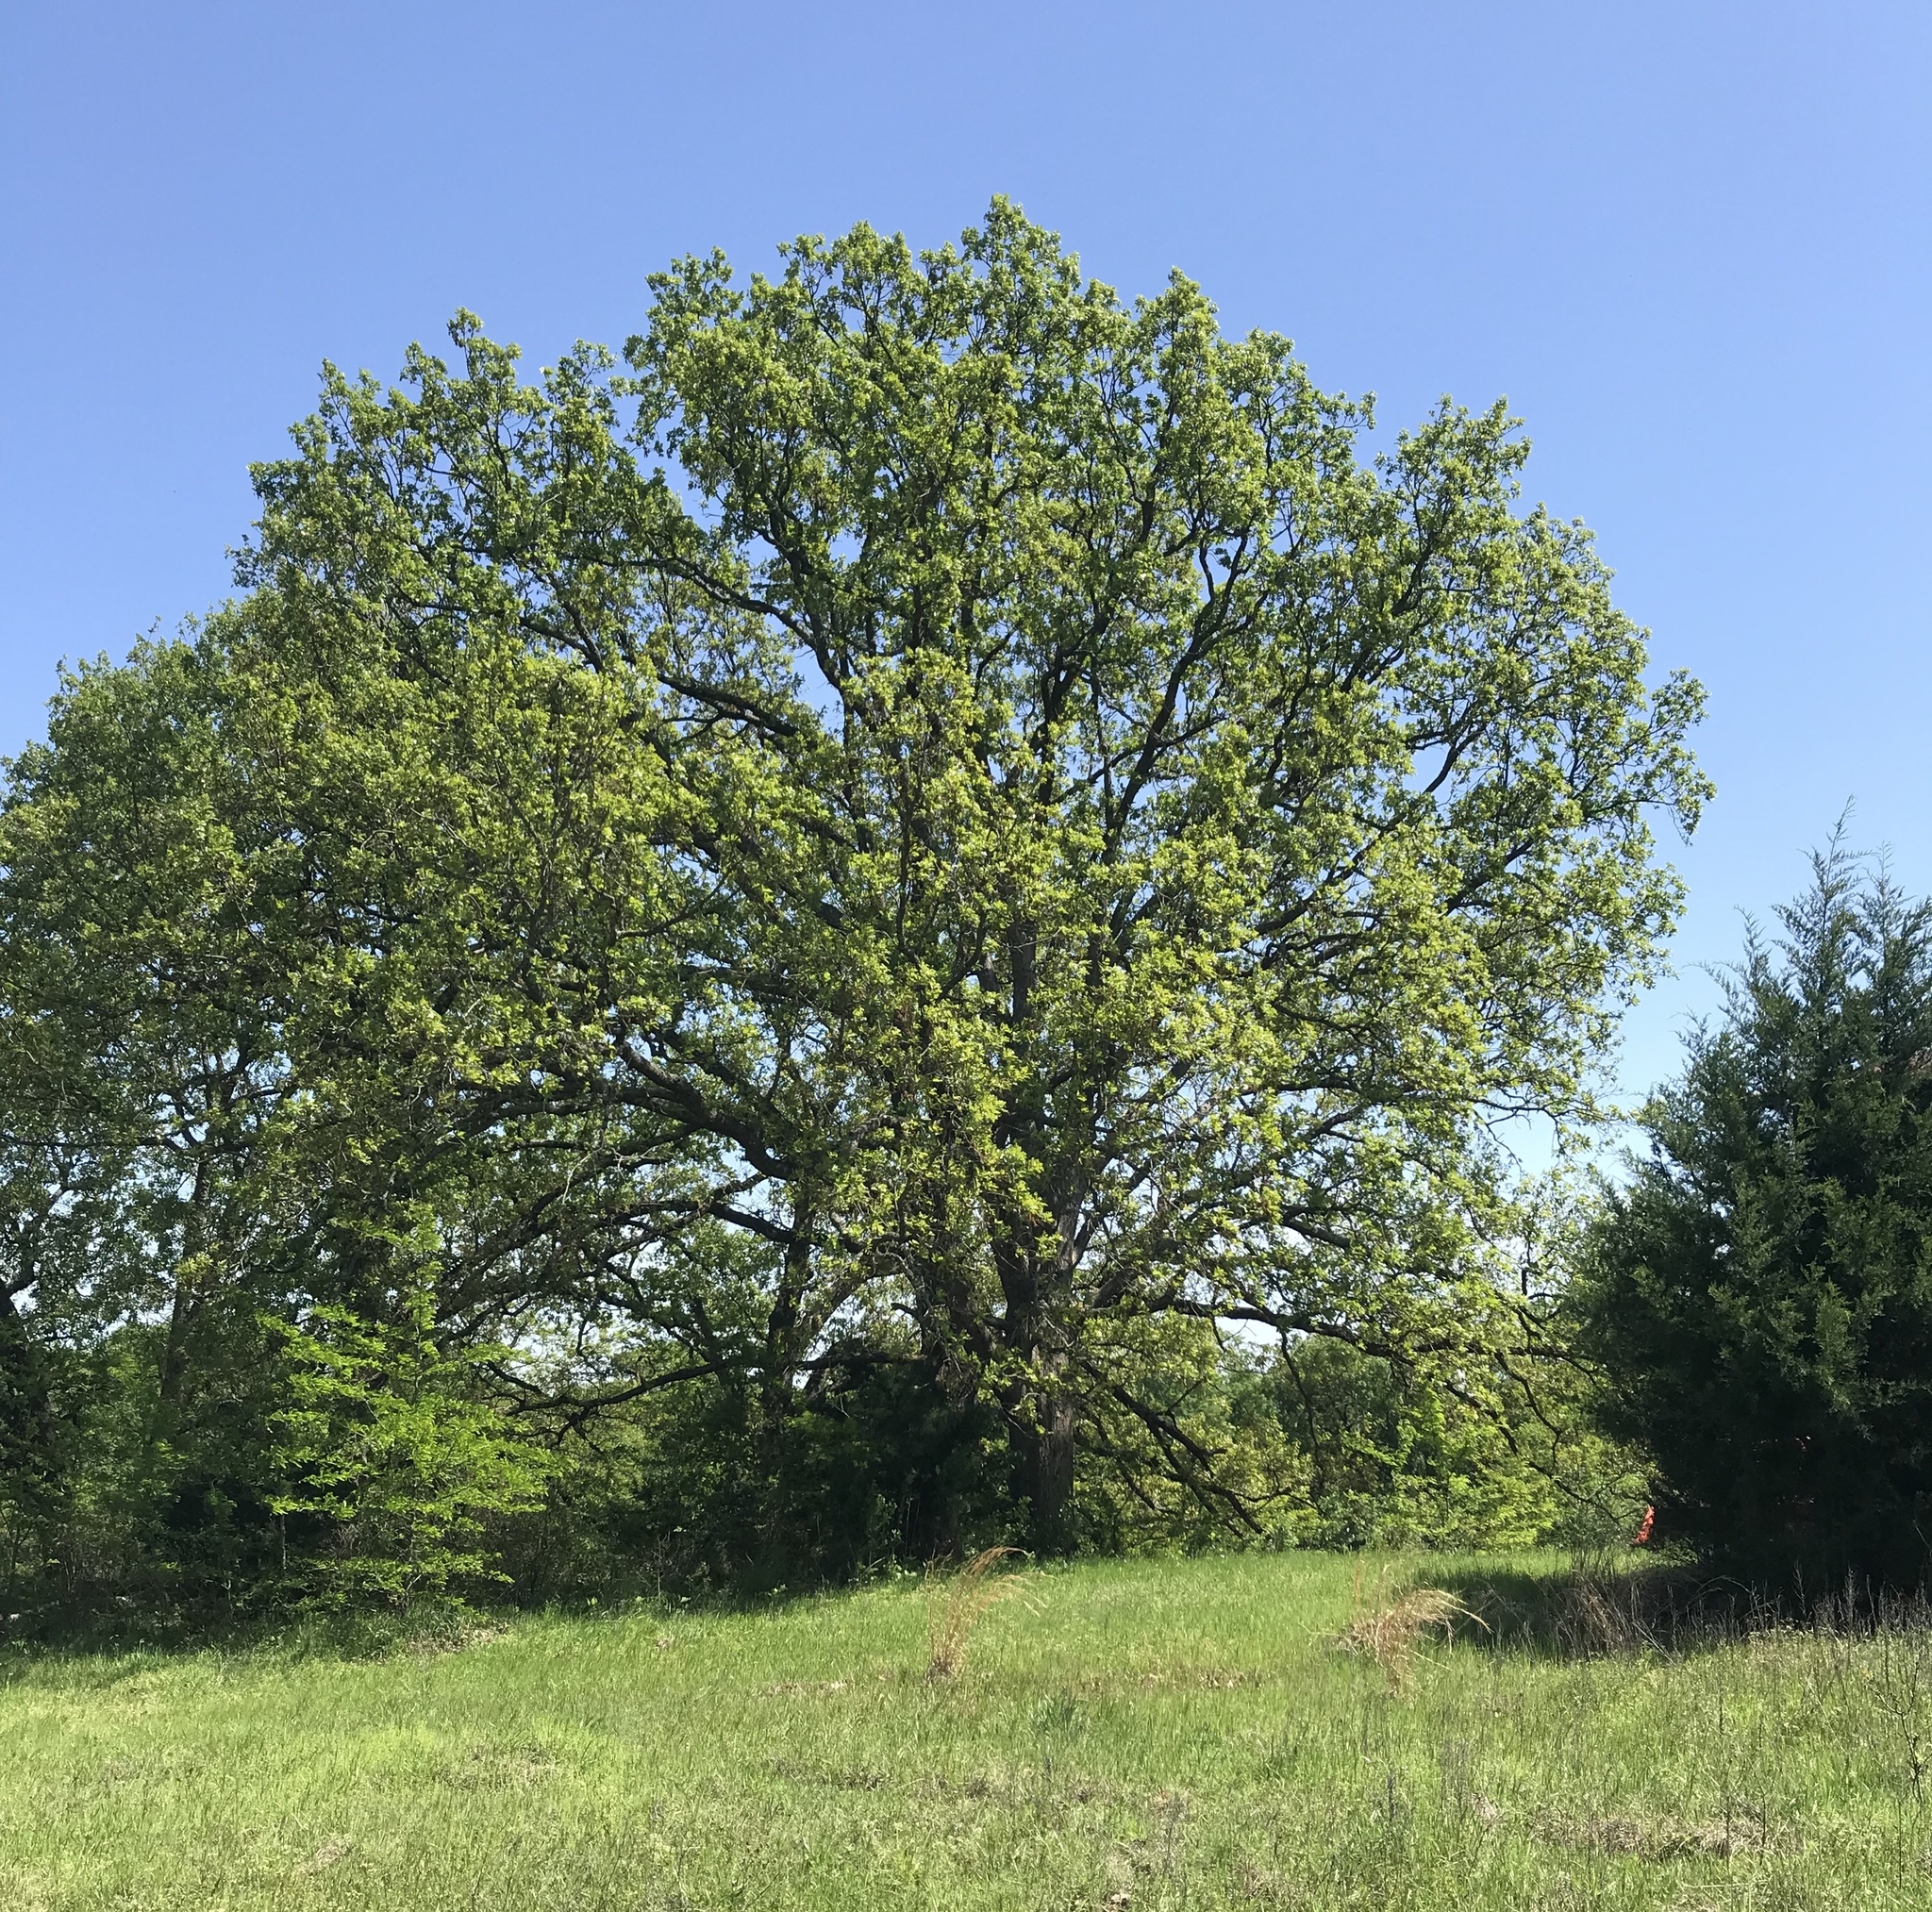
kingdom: Plantae
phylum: Tracheophyta
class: Magnoliopsida
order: Fagales
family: Fagaceae
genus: Quercus
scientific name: Quercus stellata
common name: Post oak
